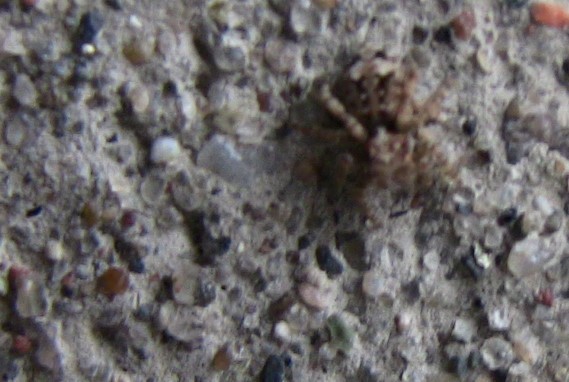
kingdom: Animalia
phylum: Arthropoda
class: Arachnida
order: Araneae
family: Salticidae
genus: Attulus
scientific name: Attulus fasciger
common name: Asiatic wall jumping spider
